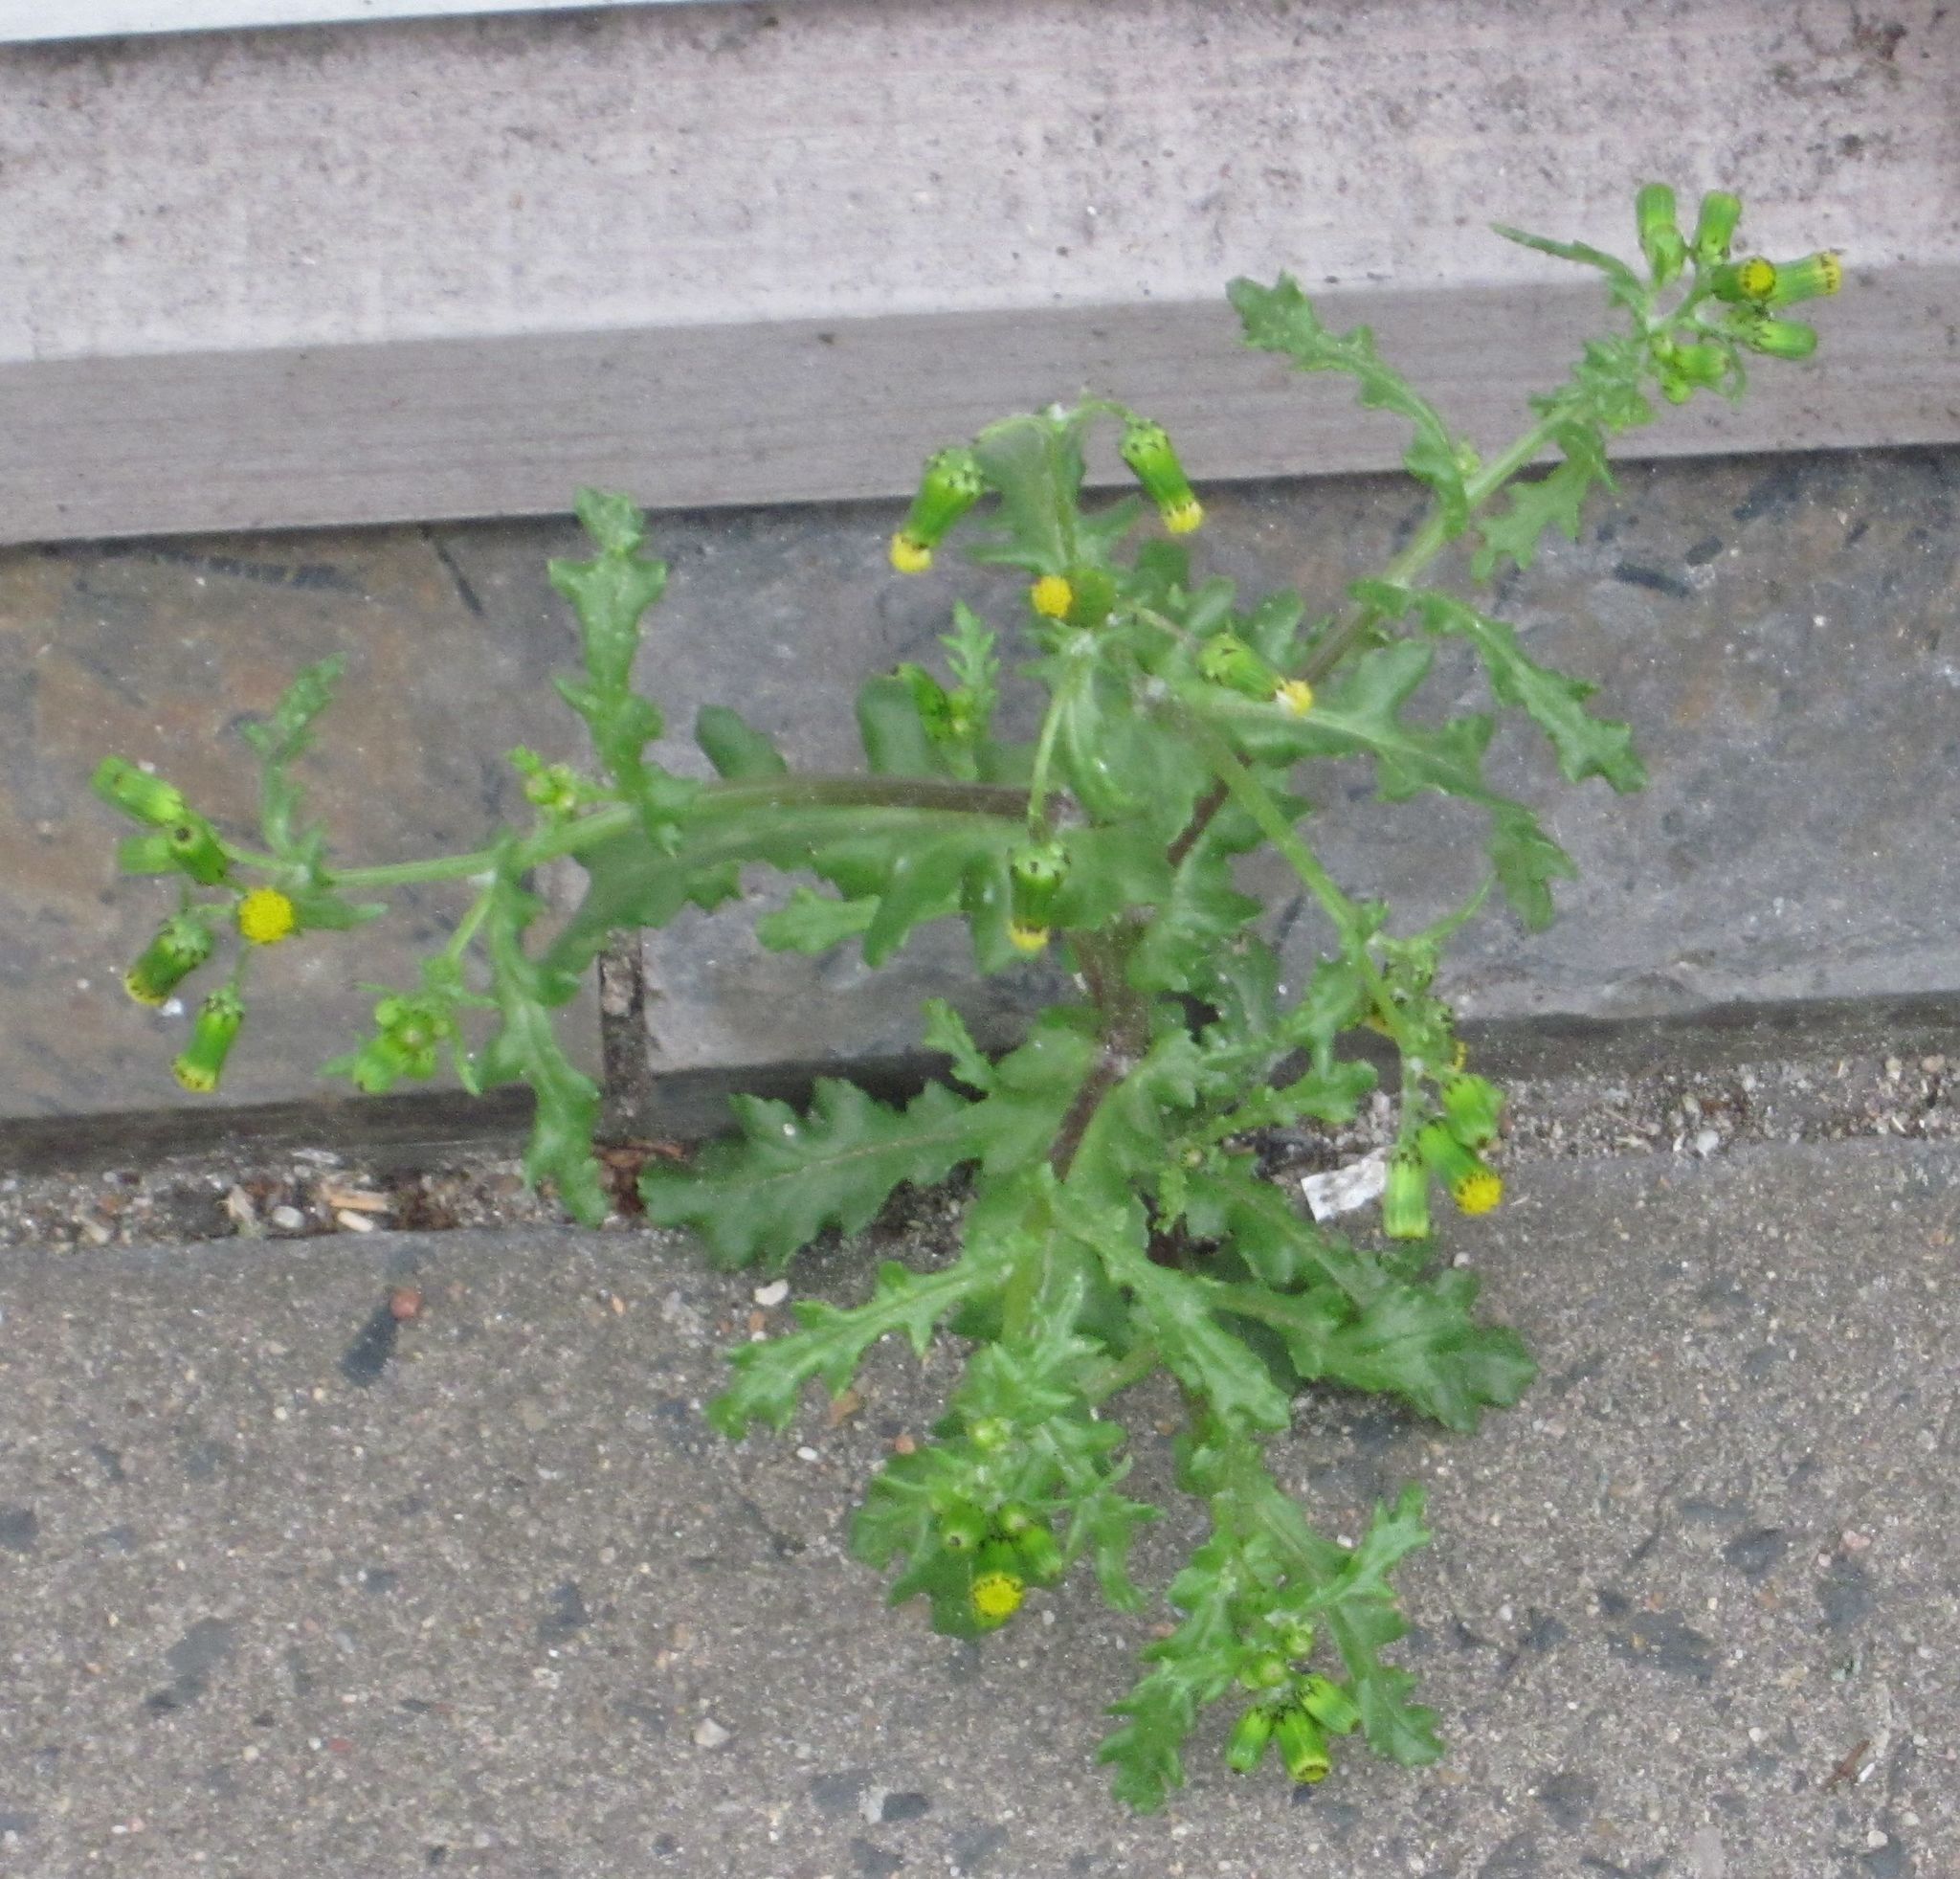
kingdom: Plantae
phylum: Tracheophyta
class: Magnoliopsida
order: Asterales
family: Asteraceae
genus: Senecio
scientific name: Senecio vulgaris
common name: Old-man-in-the-spring
